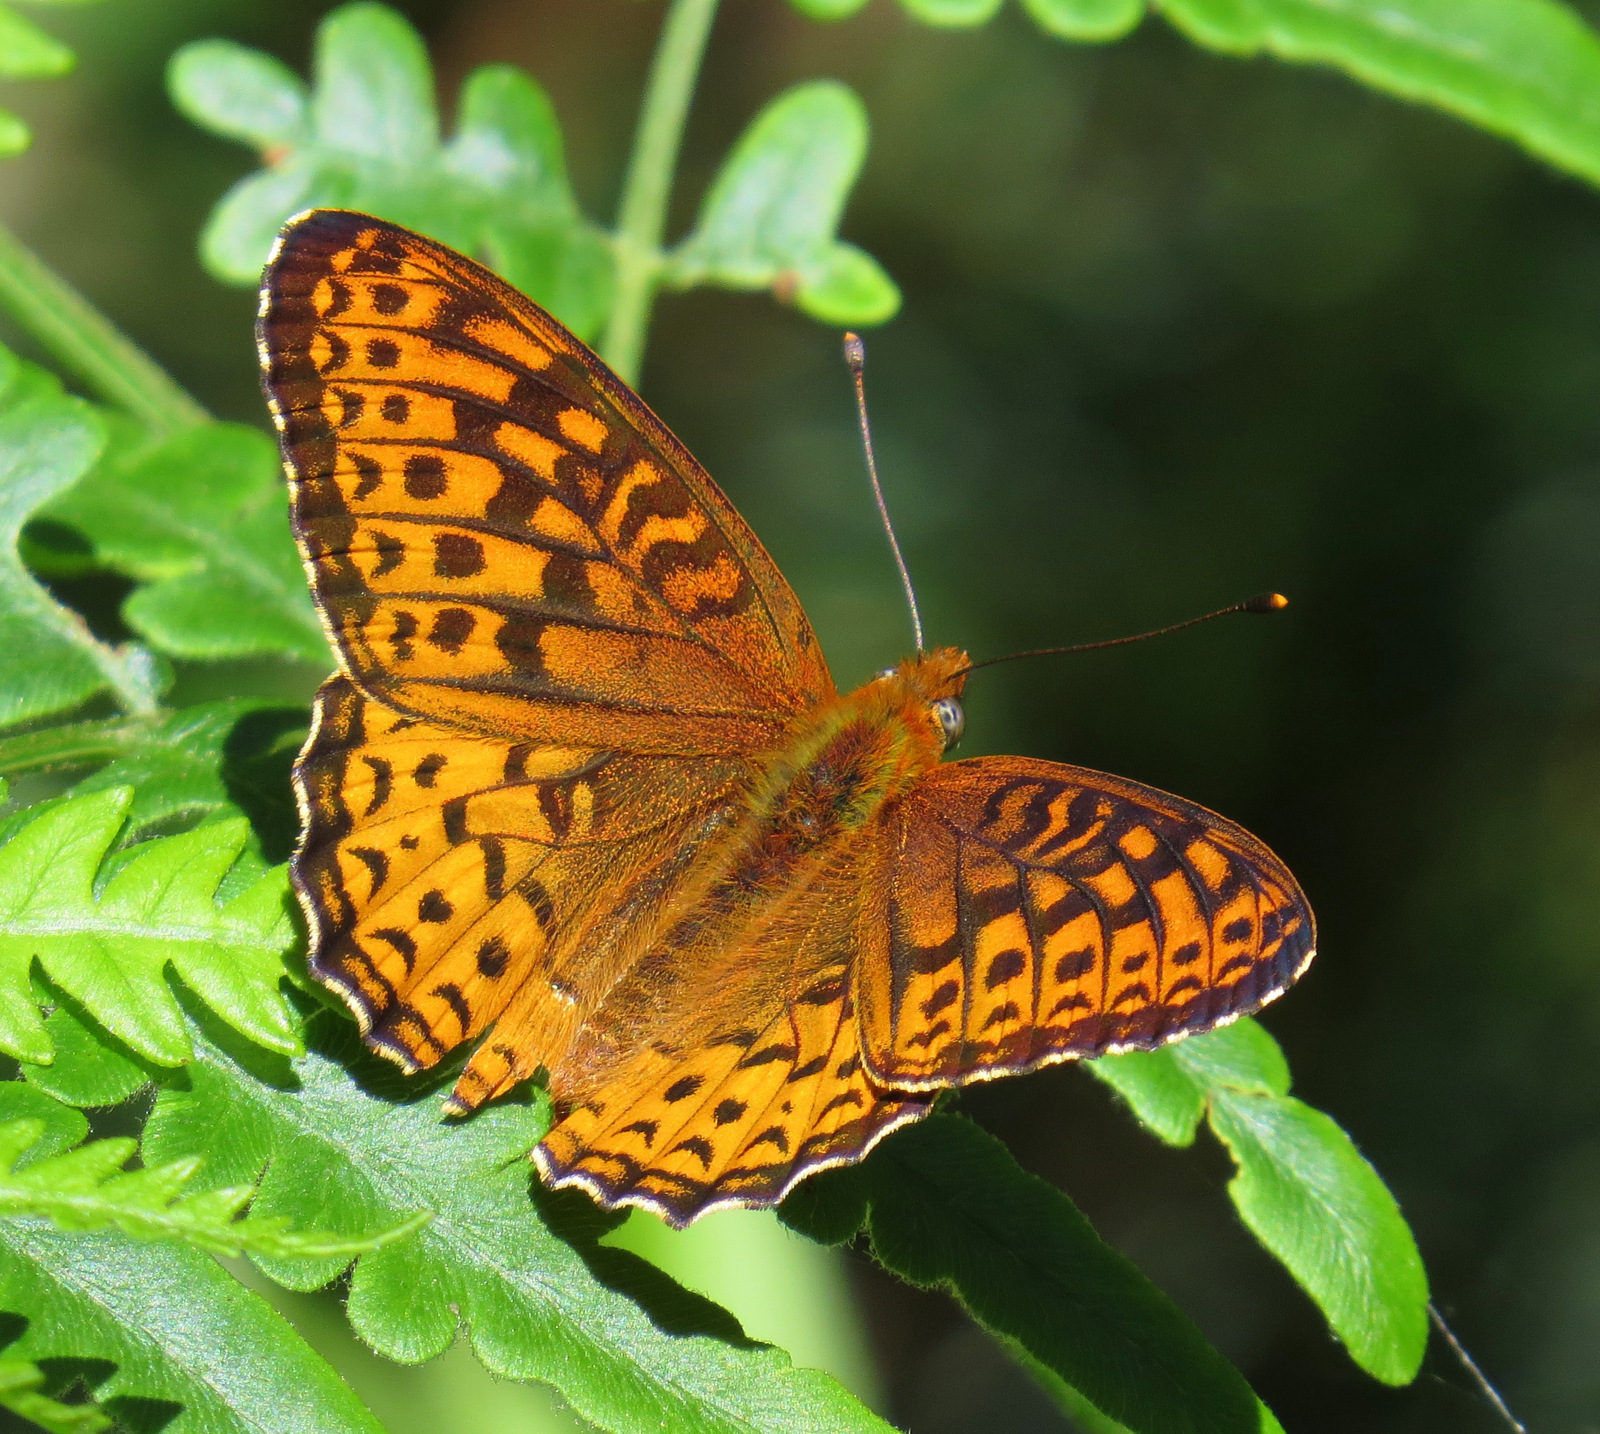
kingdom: Animalia
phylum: Arthropoda
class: Insecta
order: Lepidoptera
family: Nymphalidae
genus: Speyeria
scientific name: Speyeria atlantis
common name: Atlantis fritillary
